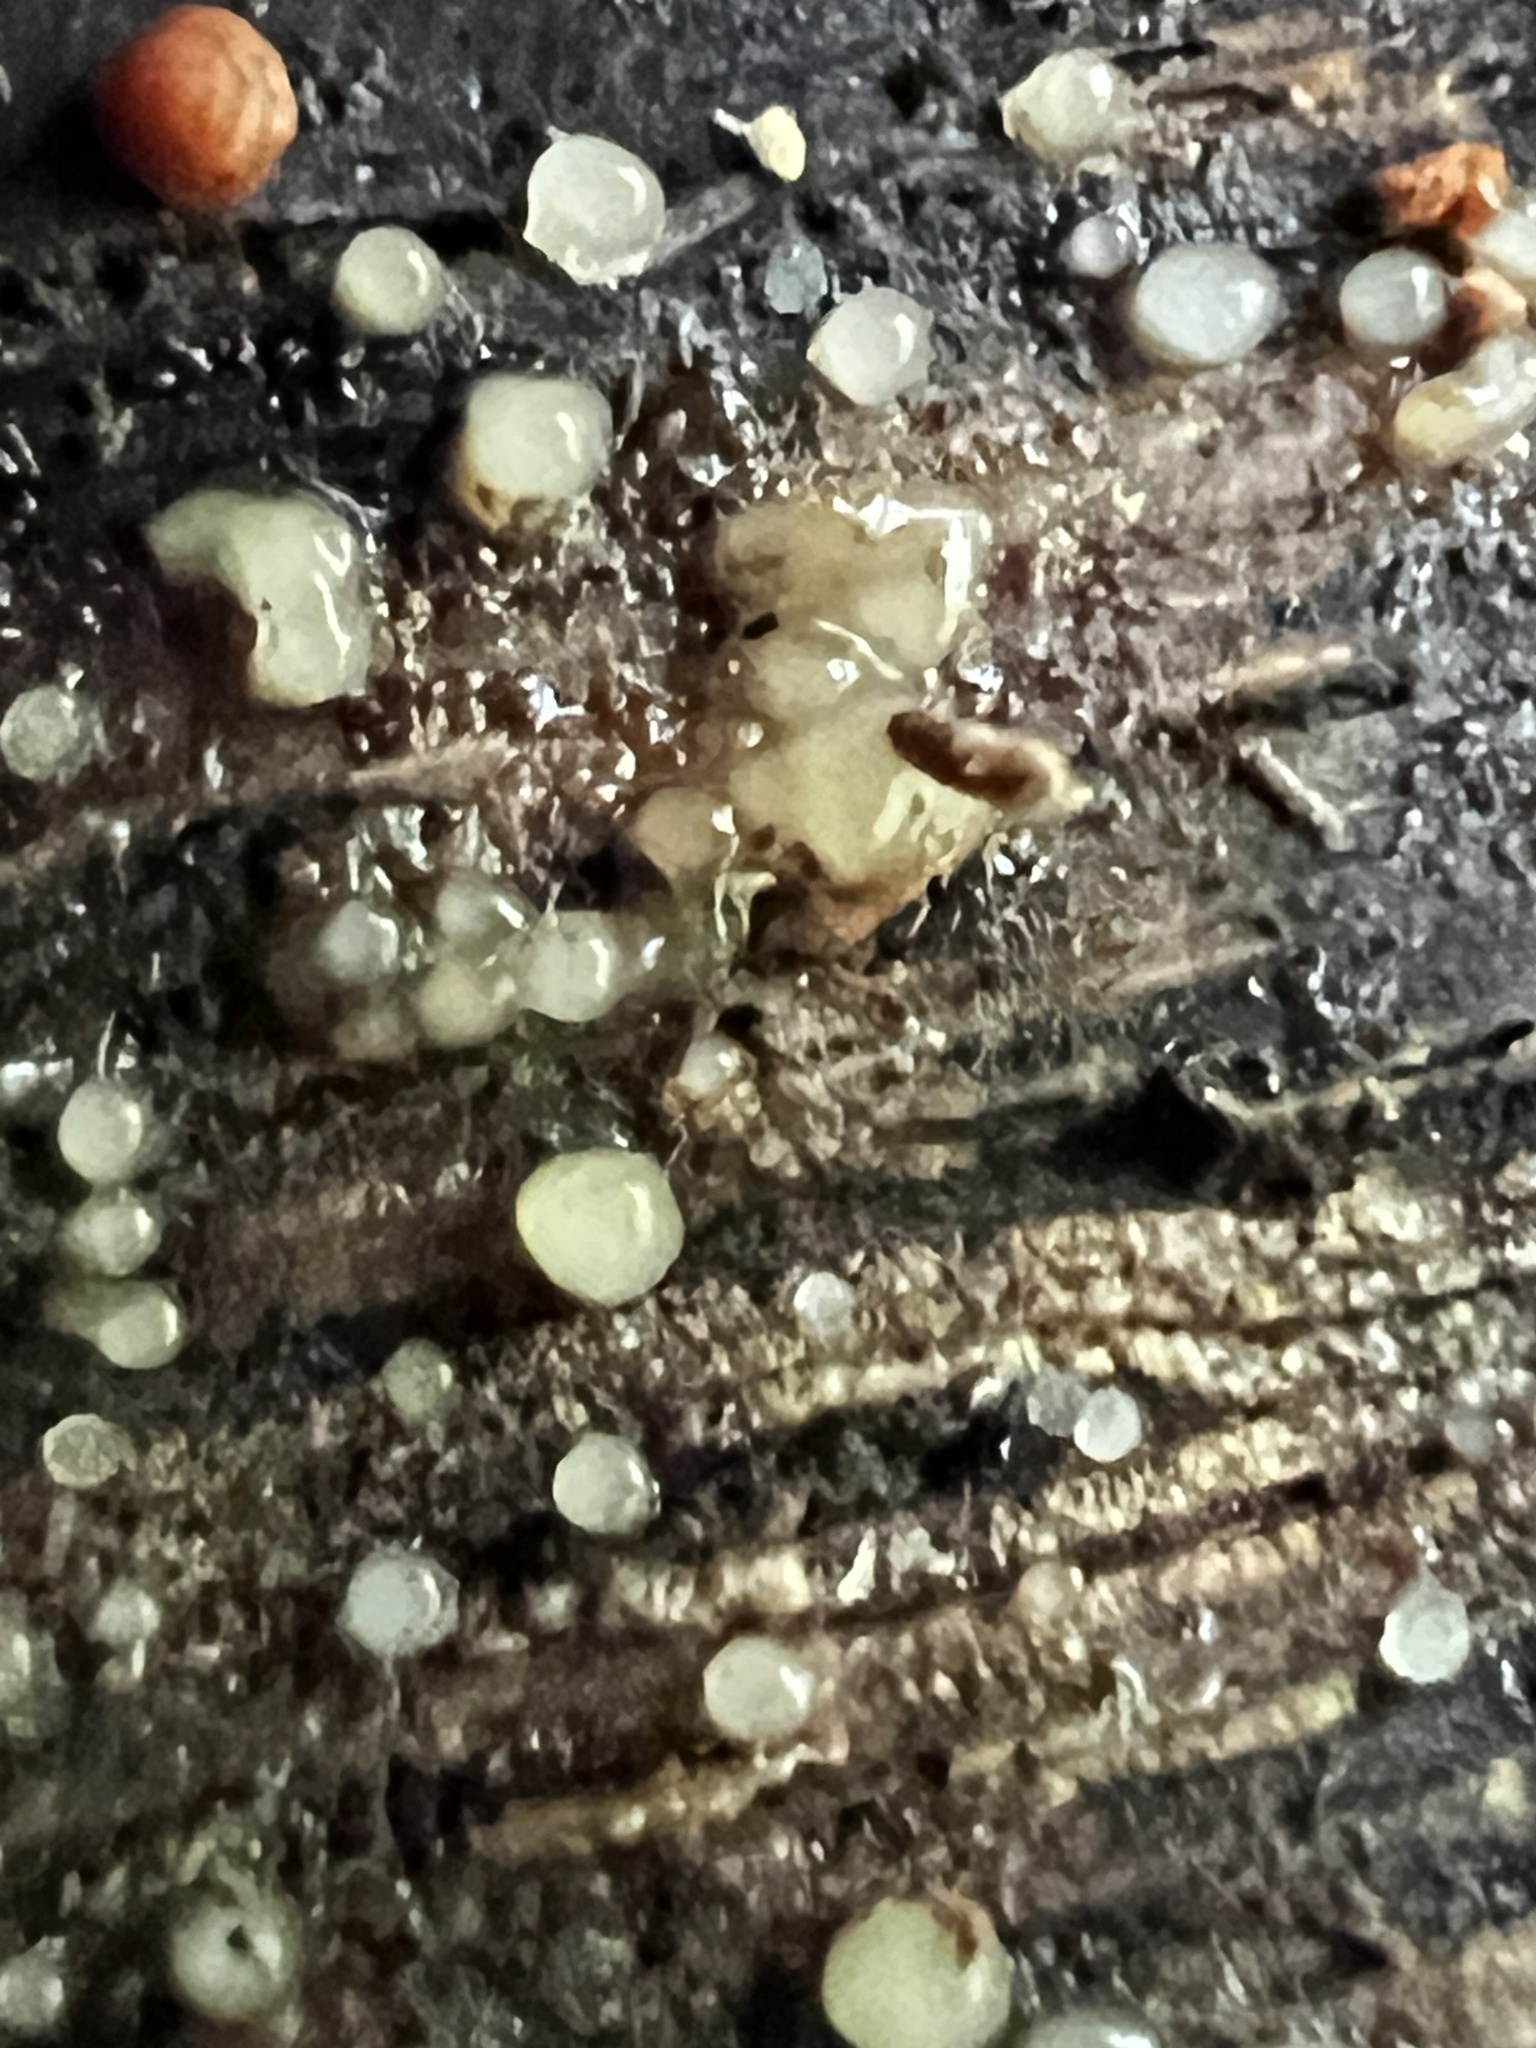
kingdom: Fungi
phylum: Basidiomycota
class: Atractiellomycetes
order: Atractiellales
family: Phleogenaceae
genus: Helicogloea
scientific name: Helicogloea compressa
